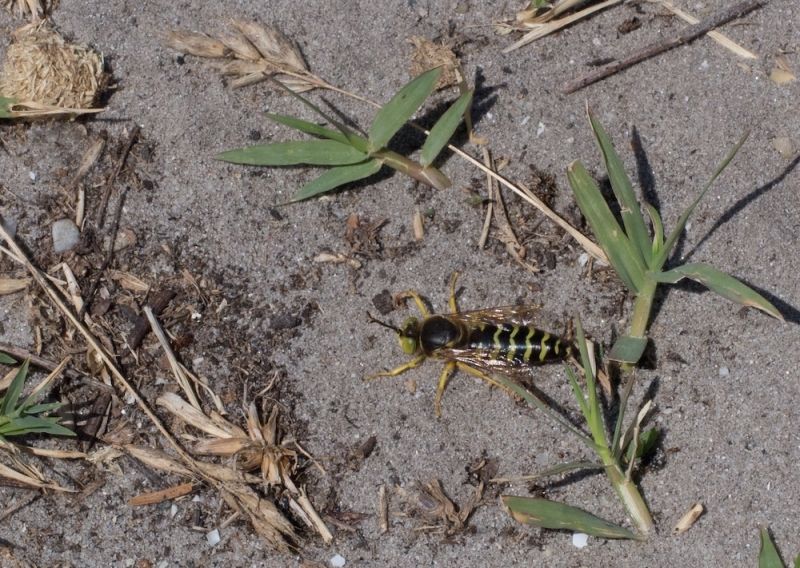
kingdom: Animalia
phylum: Arthropoda
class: Insecta
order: Hymenoptera
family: Crabronidae
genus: Bembix
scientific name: Bembix rostrata
